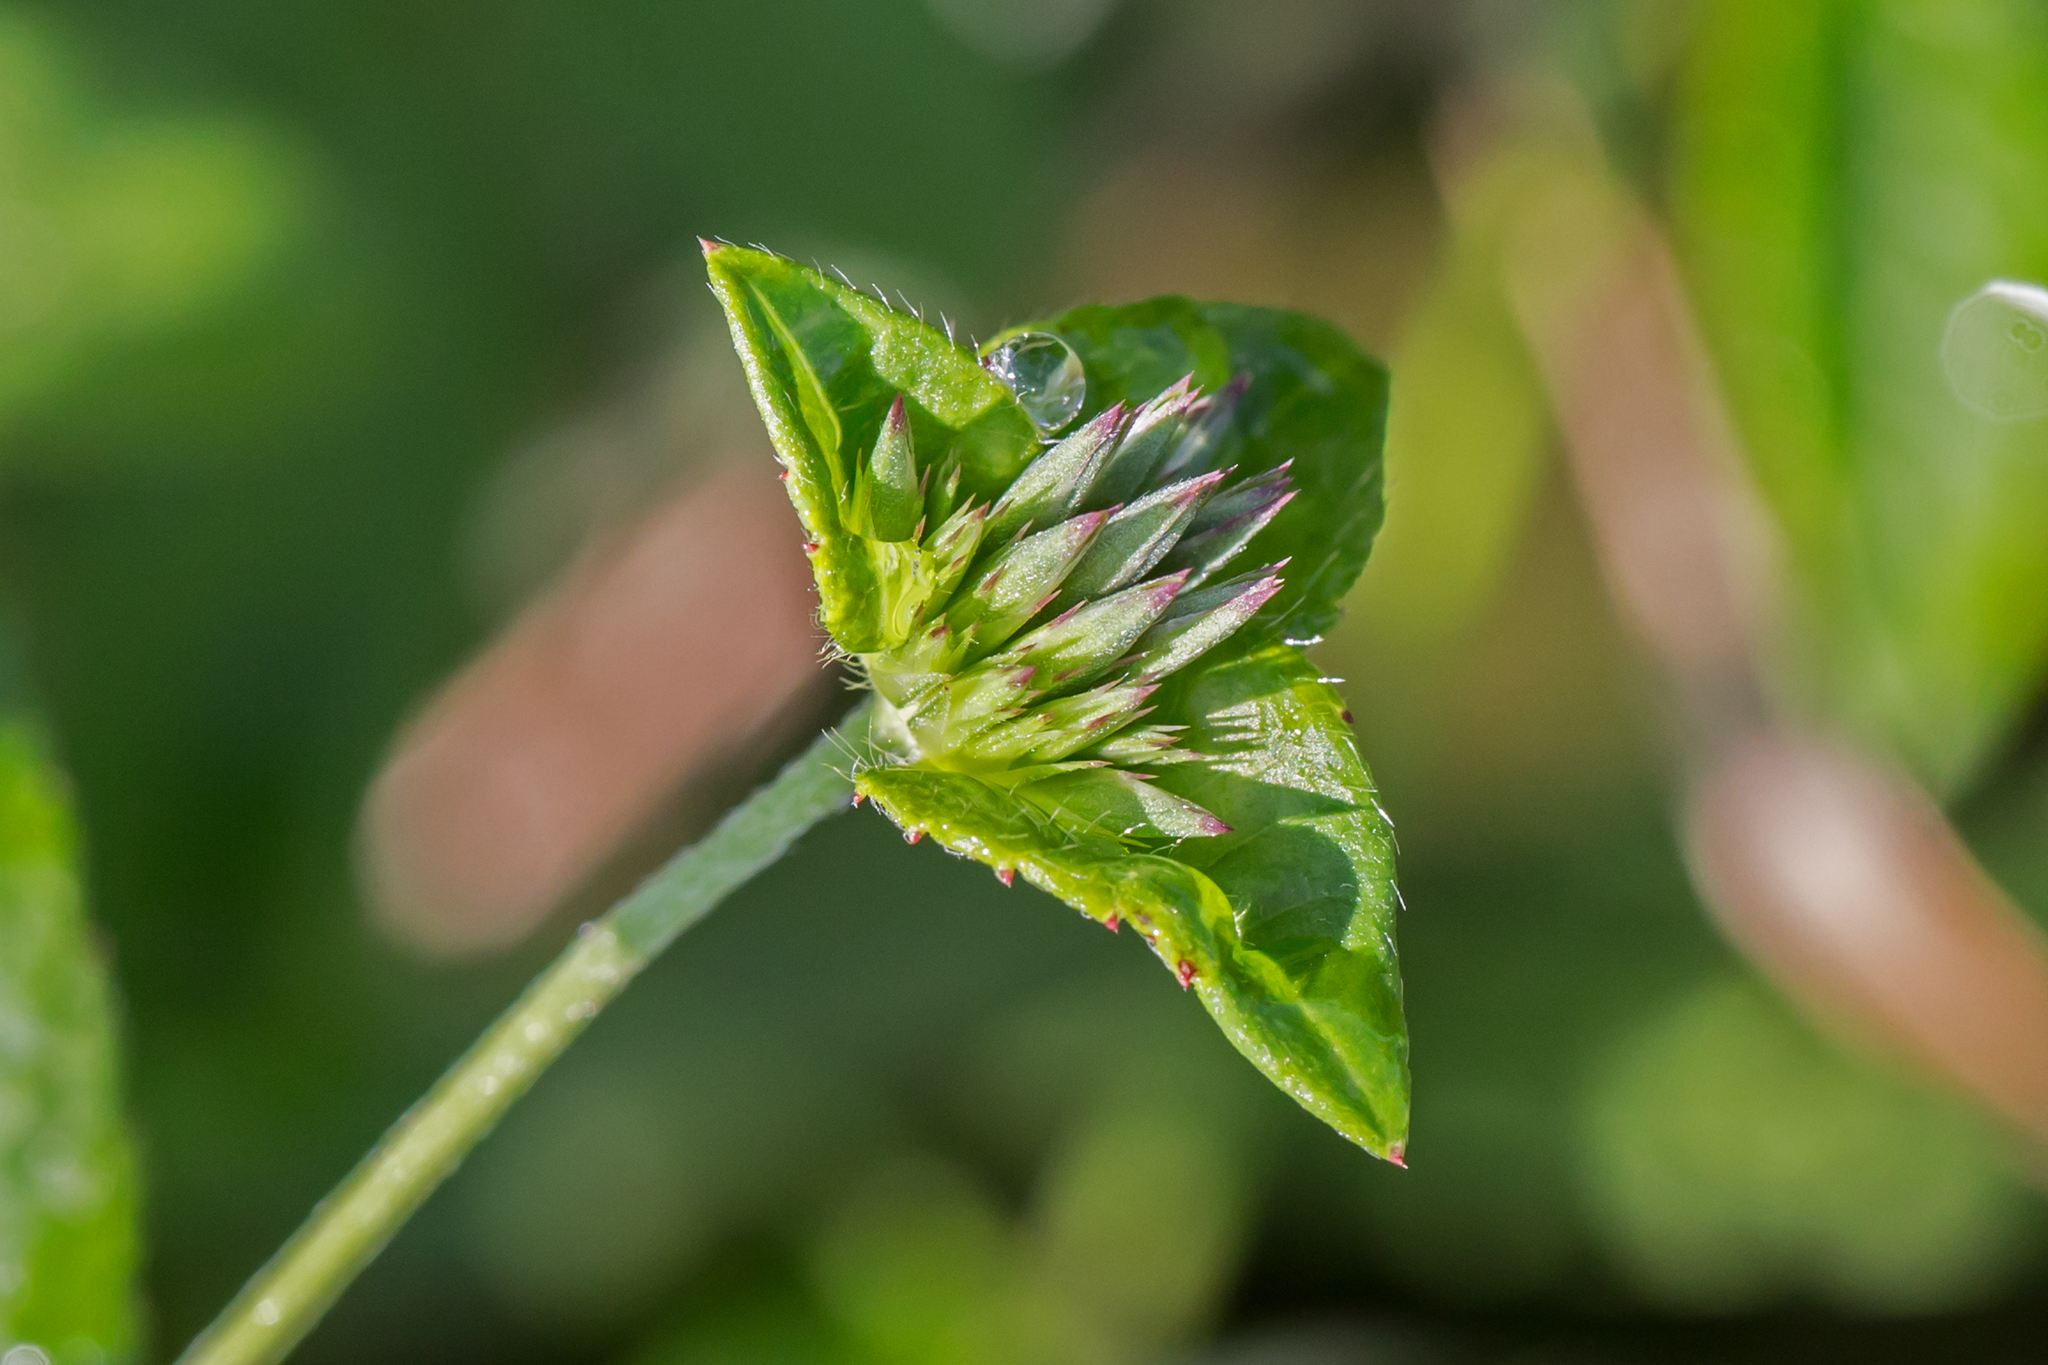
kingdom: Plantae
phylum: Tracheophyta
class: Magnoliopsida
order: Asterales
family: Asteraceae
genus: Elephantopus
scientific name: Elephantopus carolinianus
